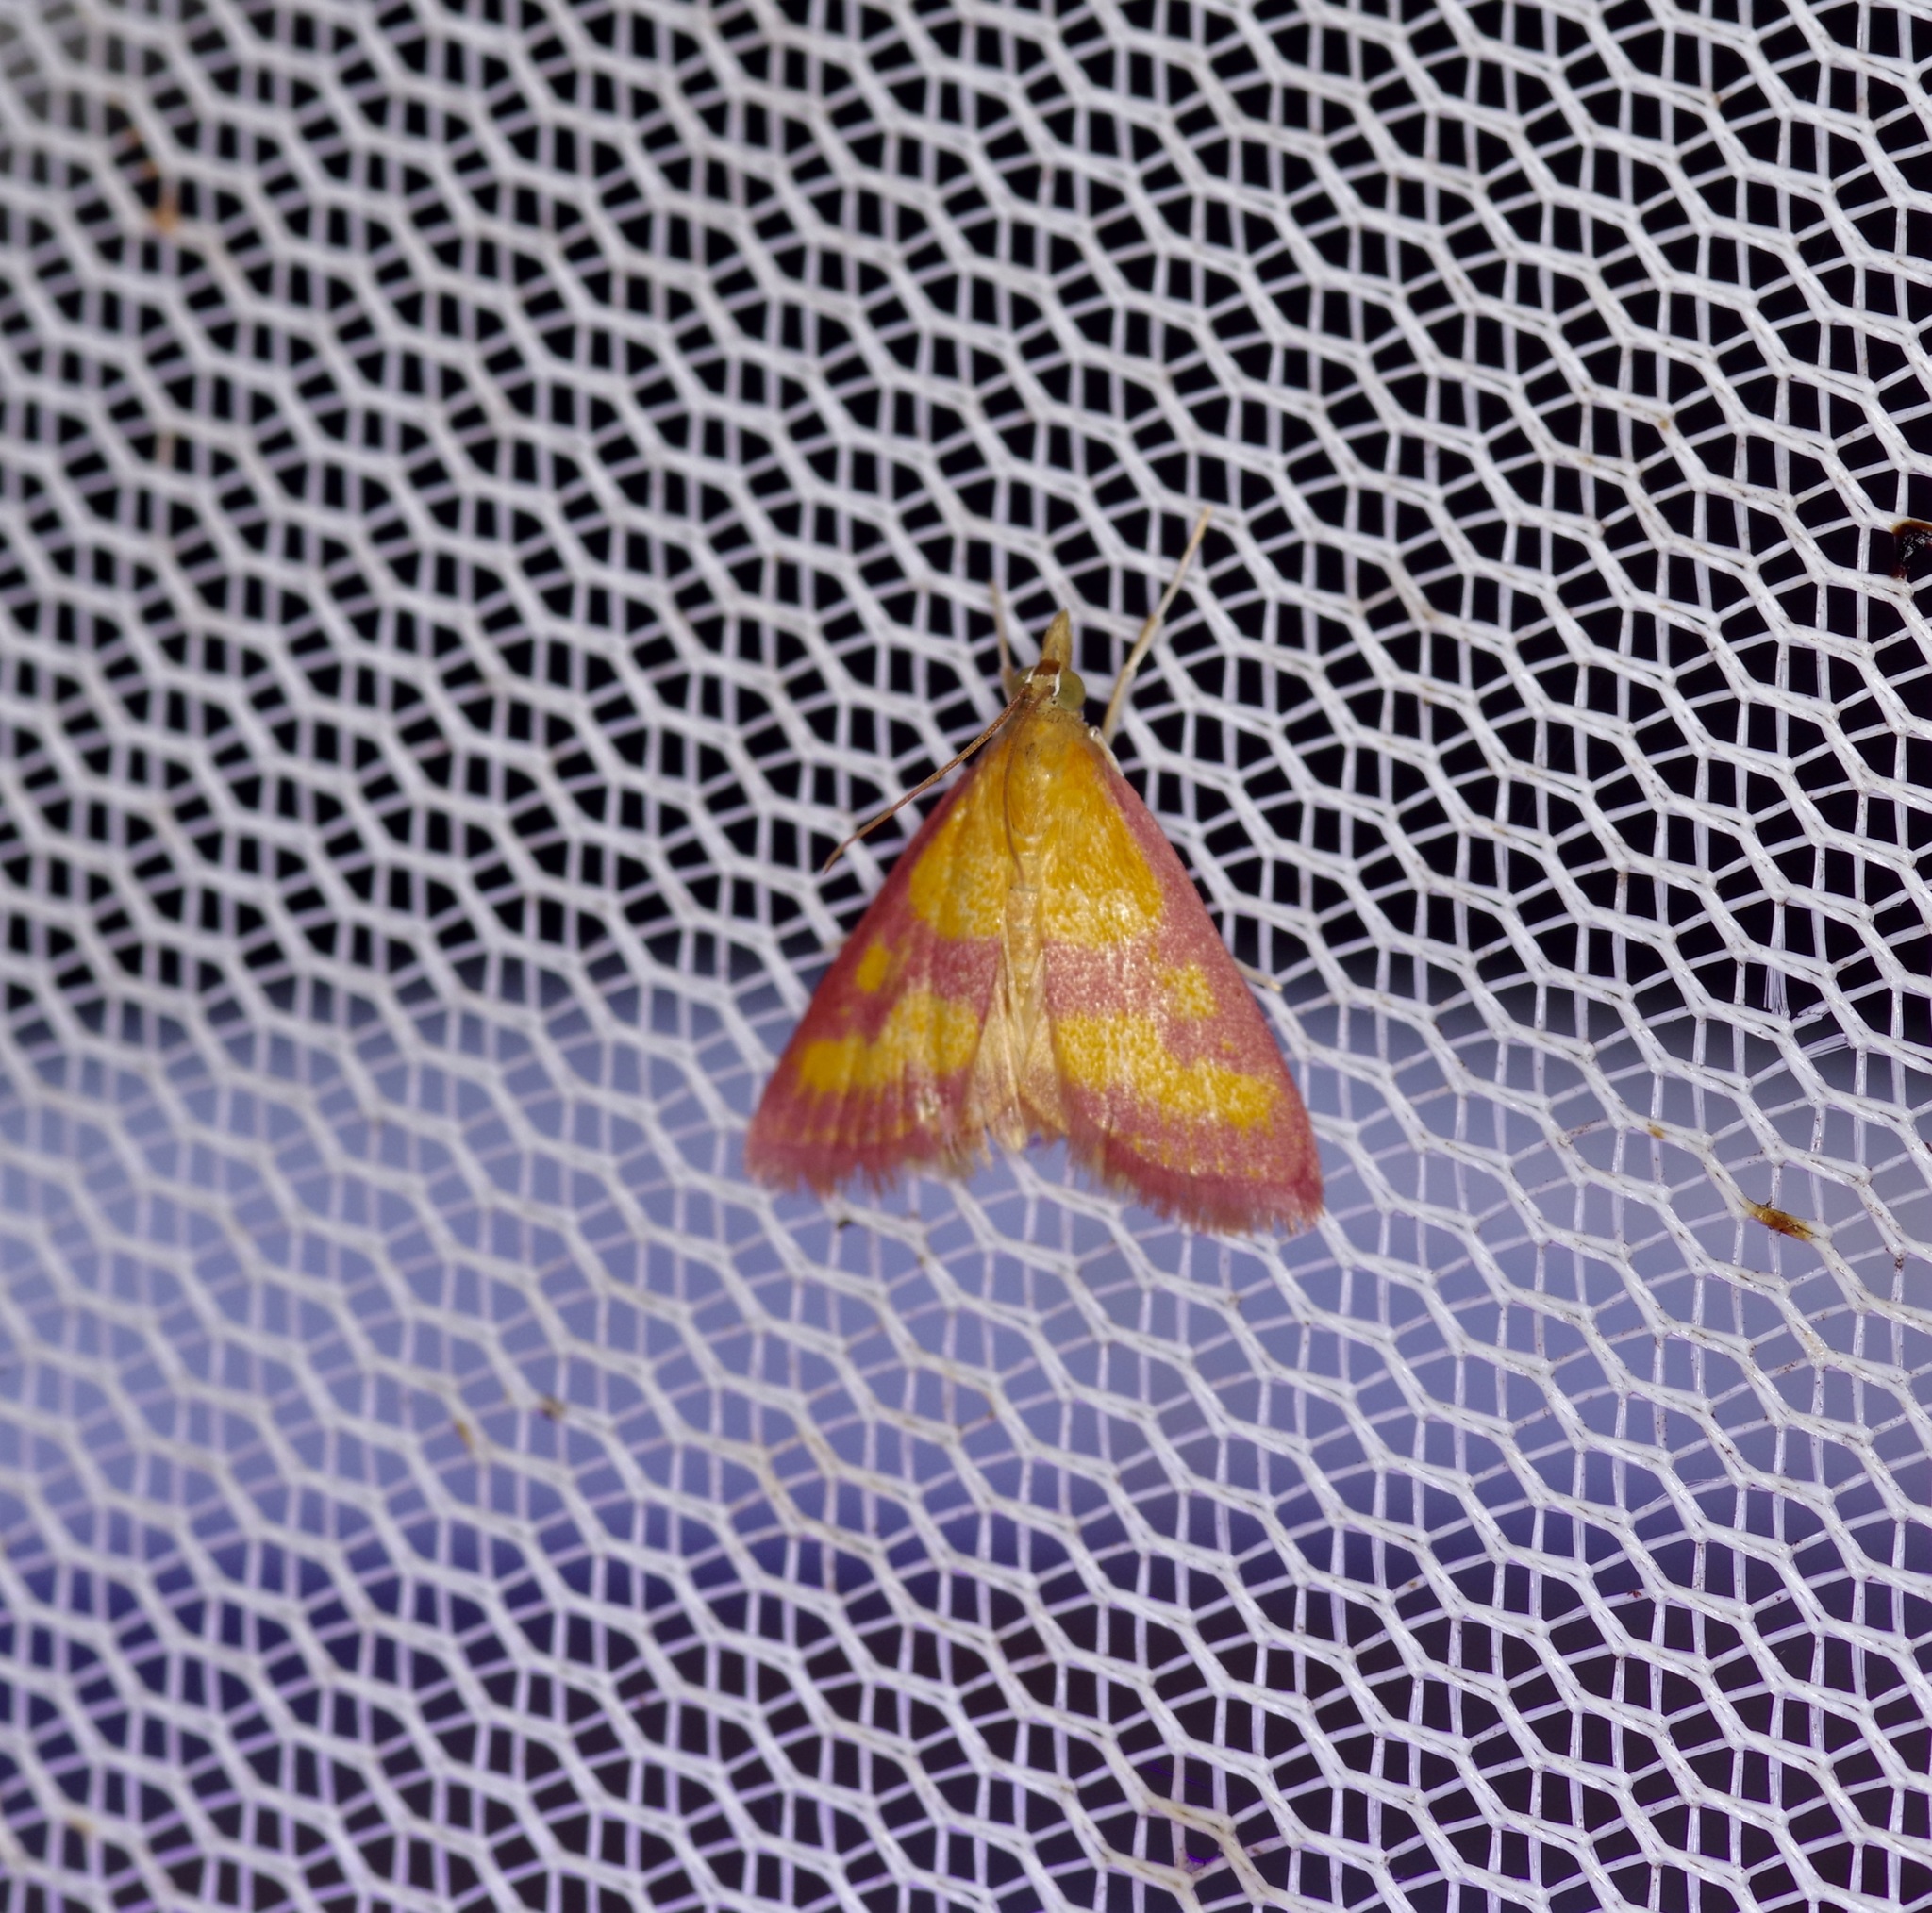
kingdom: Animalia
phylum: Arthropoda
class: Insecta
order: Lepidoptera
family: Crambidae
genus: Pyrausta
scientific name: Pyrausta laticlavia
